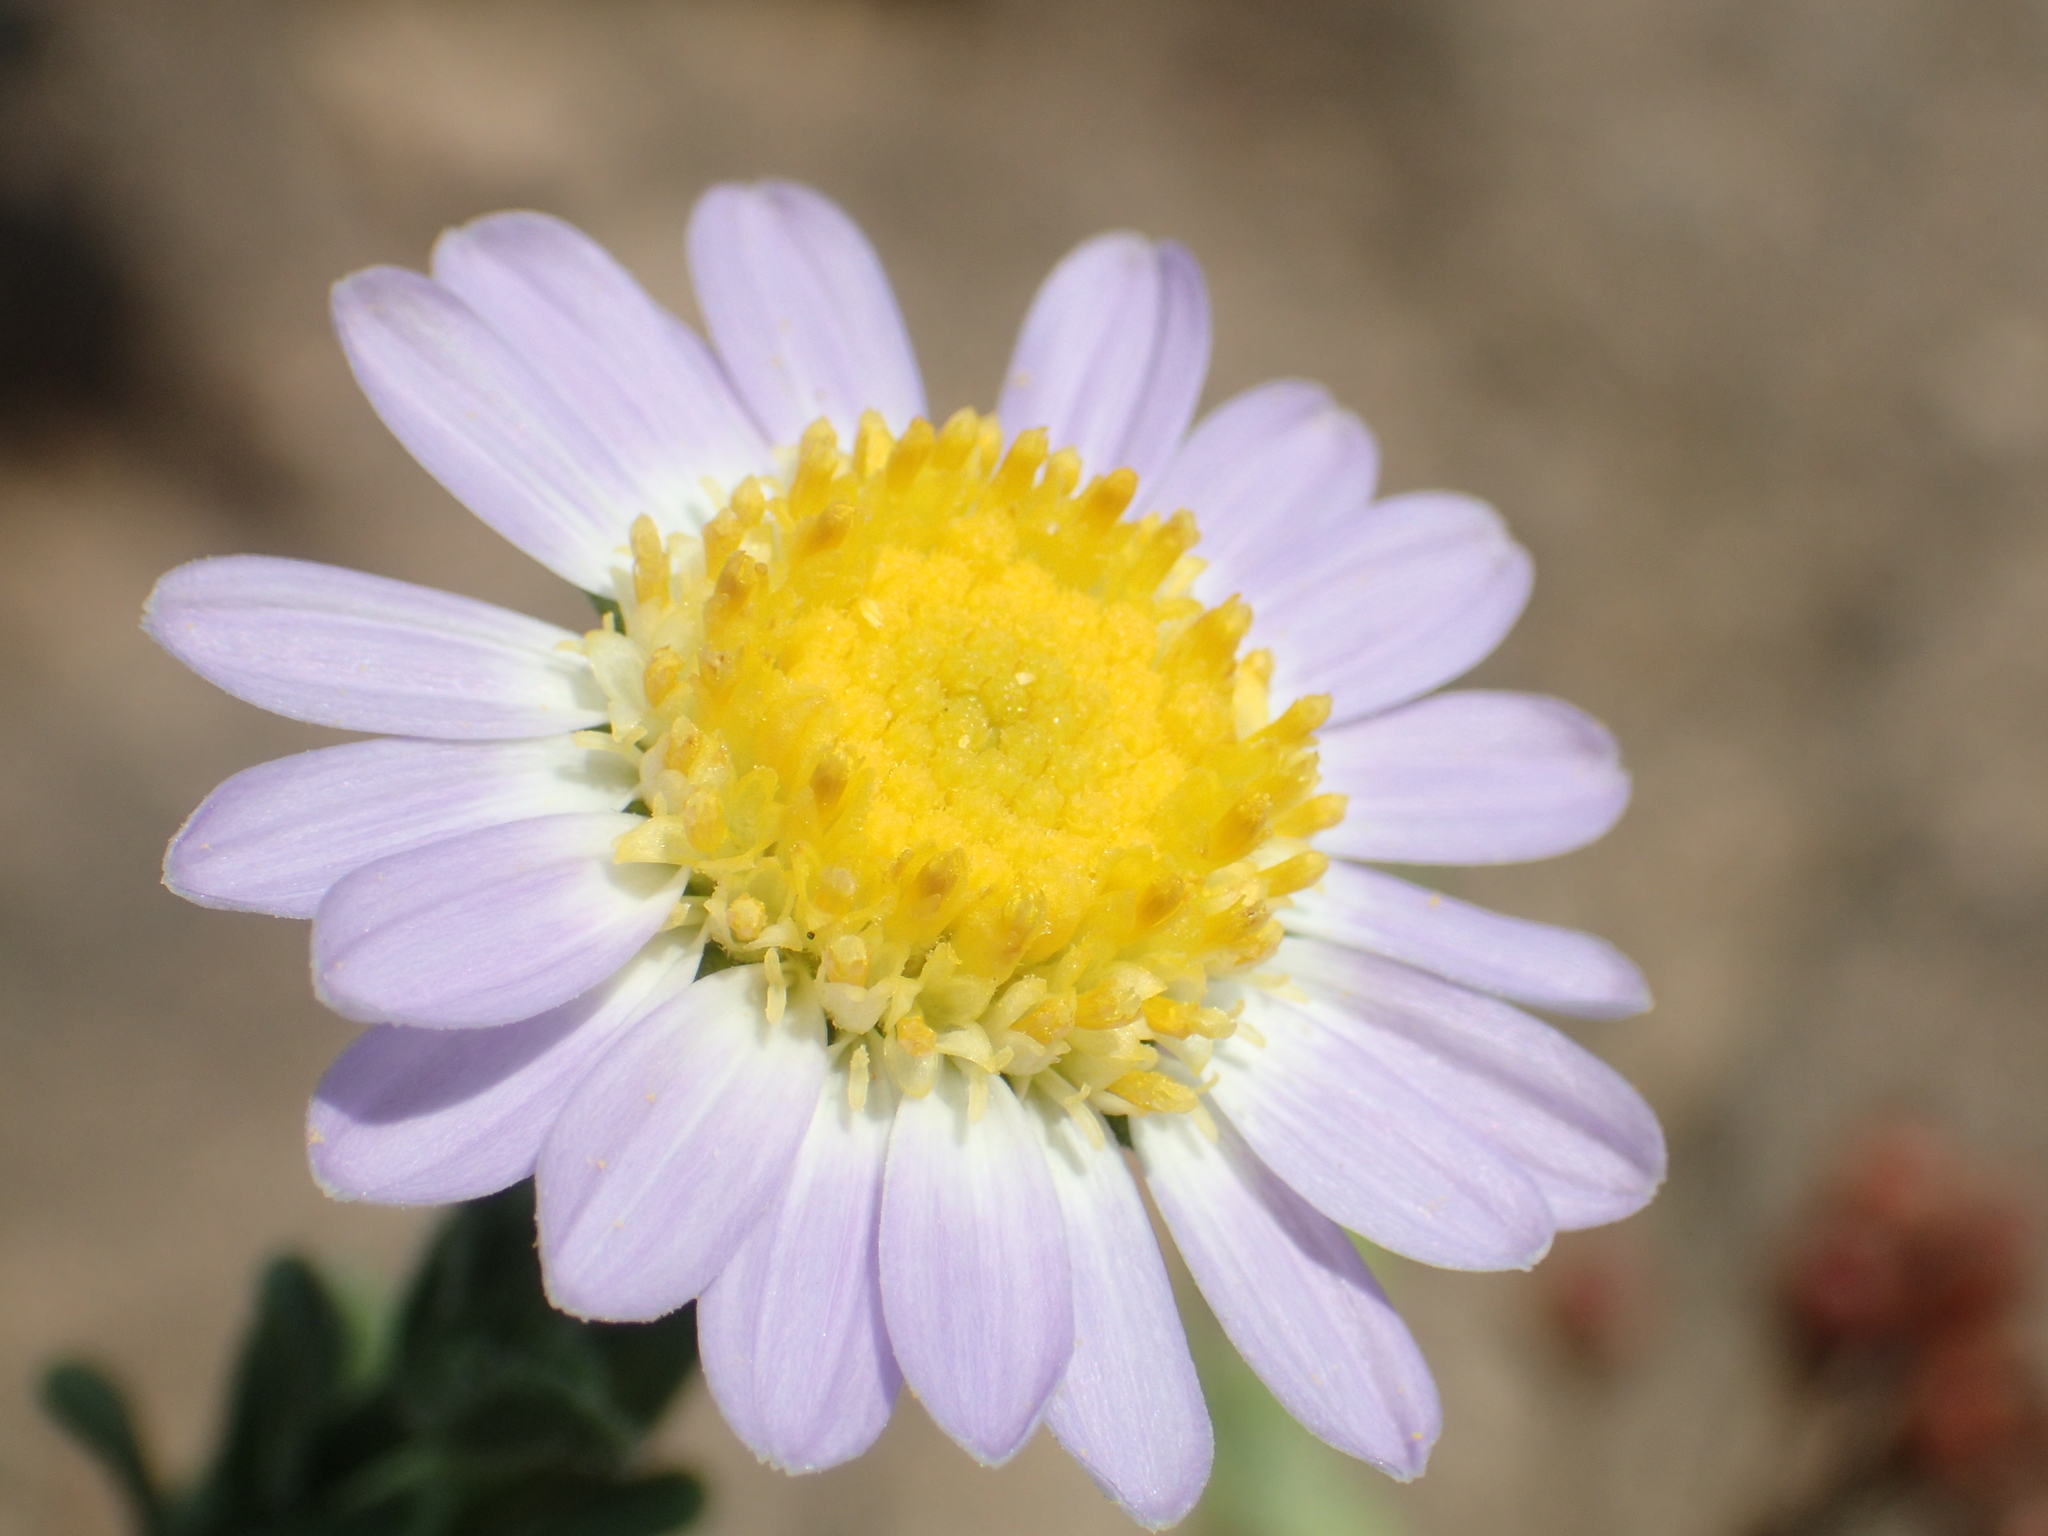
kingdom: Plantae
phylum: Tracheophyta
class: Magnoliopsida
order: Asterales
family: Asteraceae
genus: Heteropappus
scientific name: Heteropappus oldhamii
